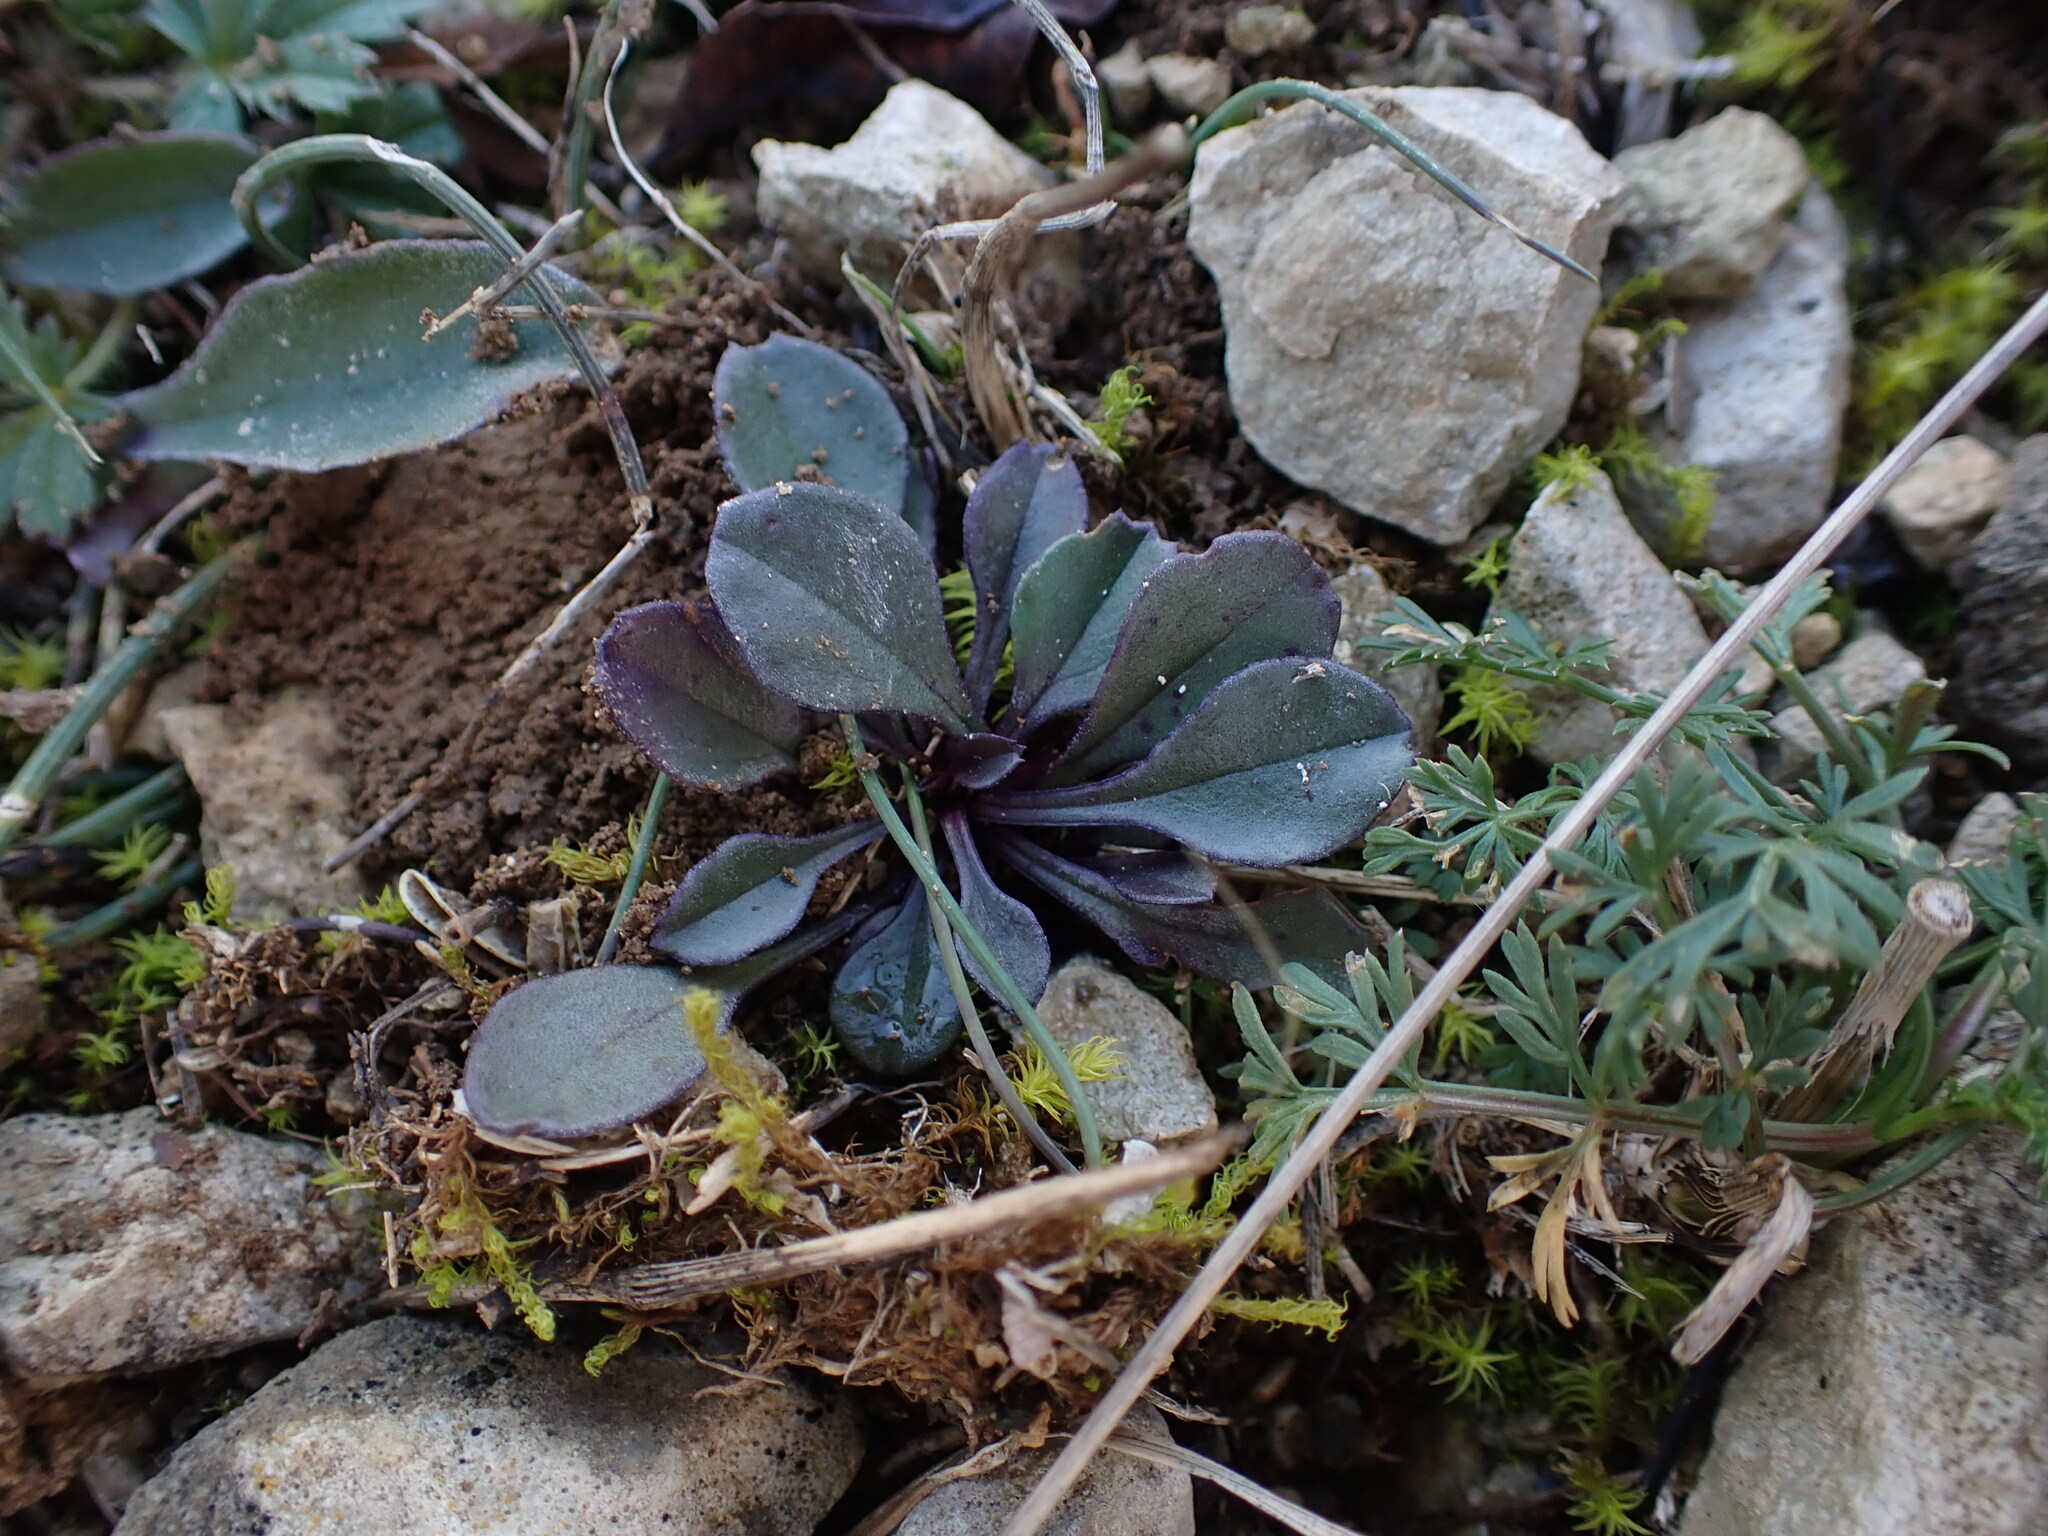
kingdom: Plantae
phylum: Tracheophyta
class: Magnoliopsida
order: Lamiales
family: Plantaginaceae
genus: Globularia
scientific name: Globularia vulgaris
